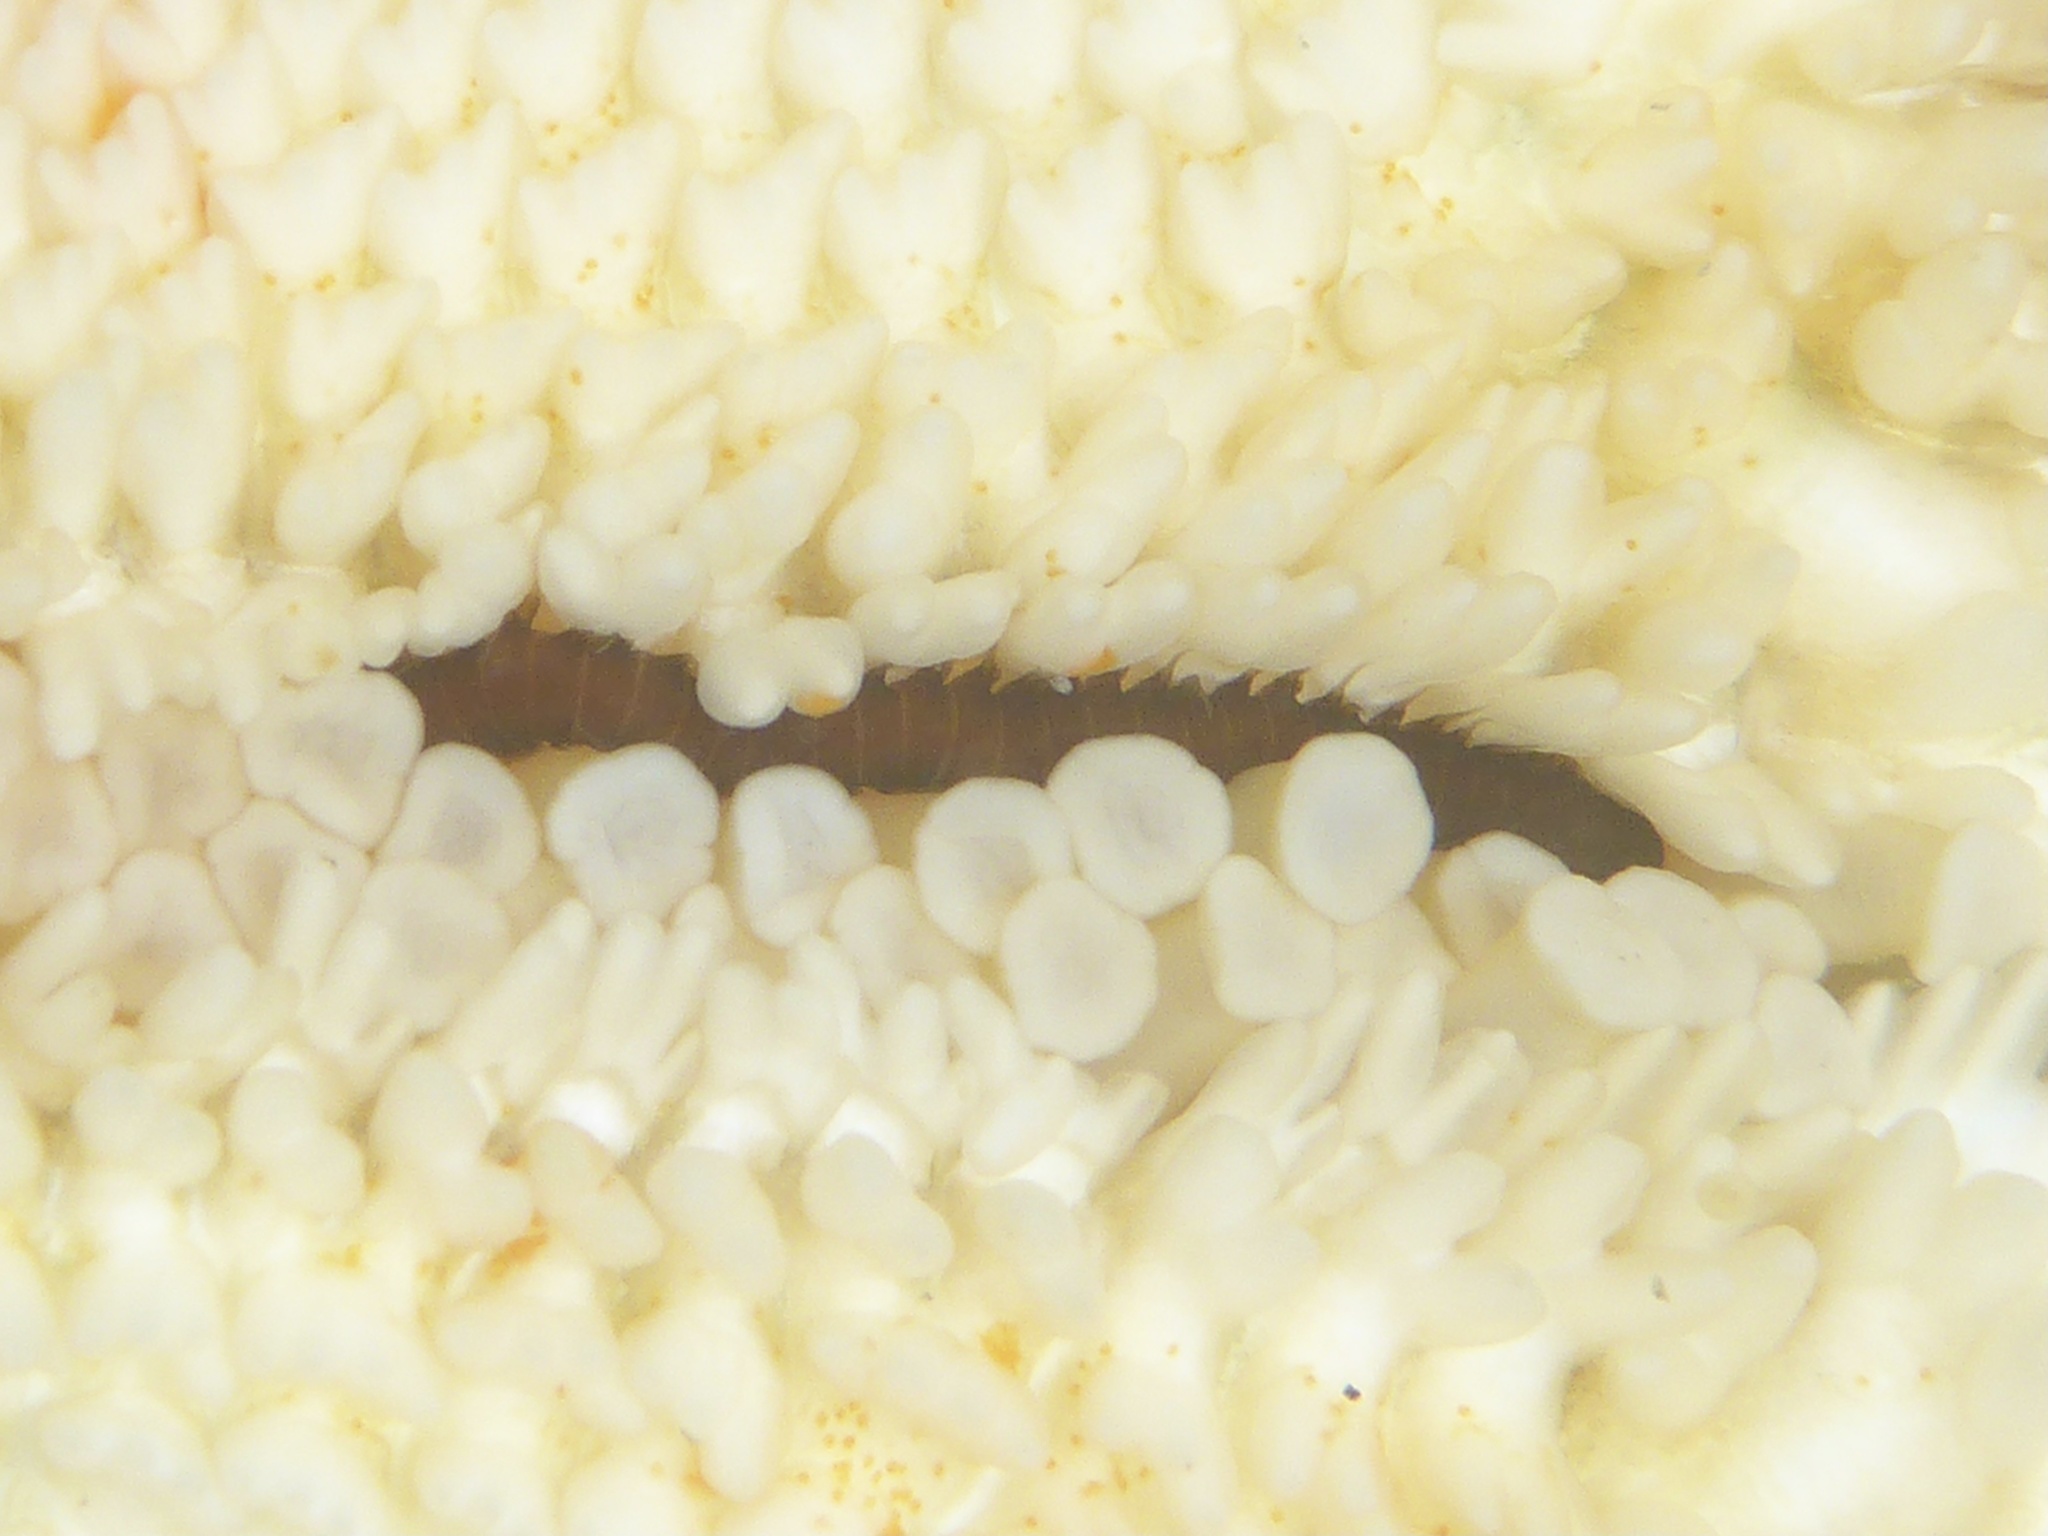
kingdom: Animalia
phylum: Annelida
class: Polychaeta
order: Phyllodocida
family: Hesionidae
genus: Oxydromus
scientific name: Oxydromus pugettensis
